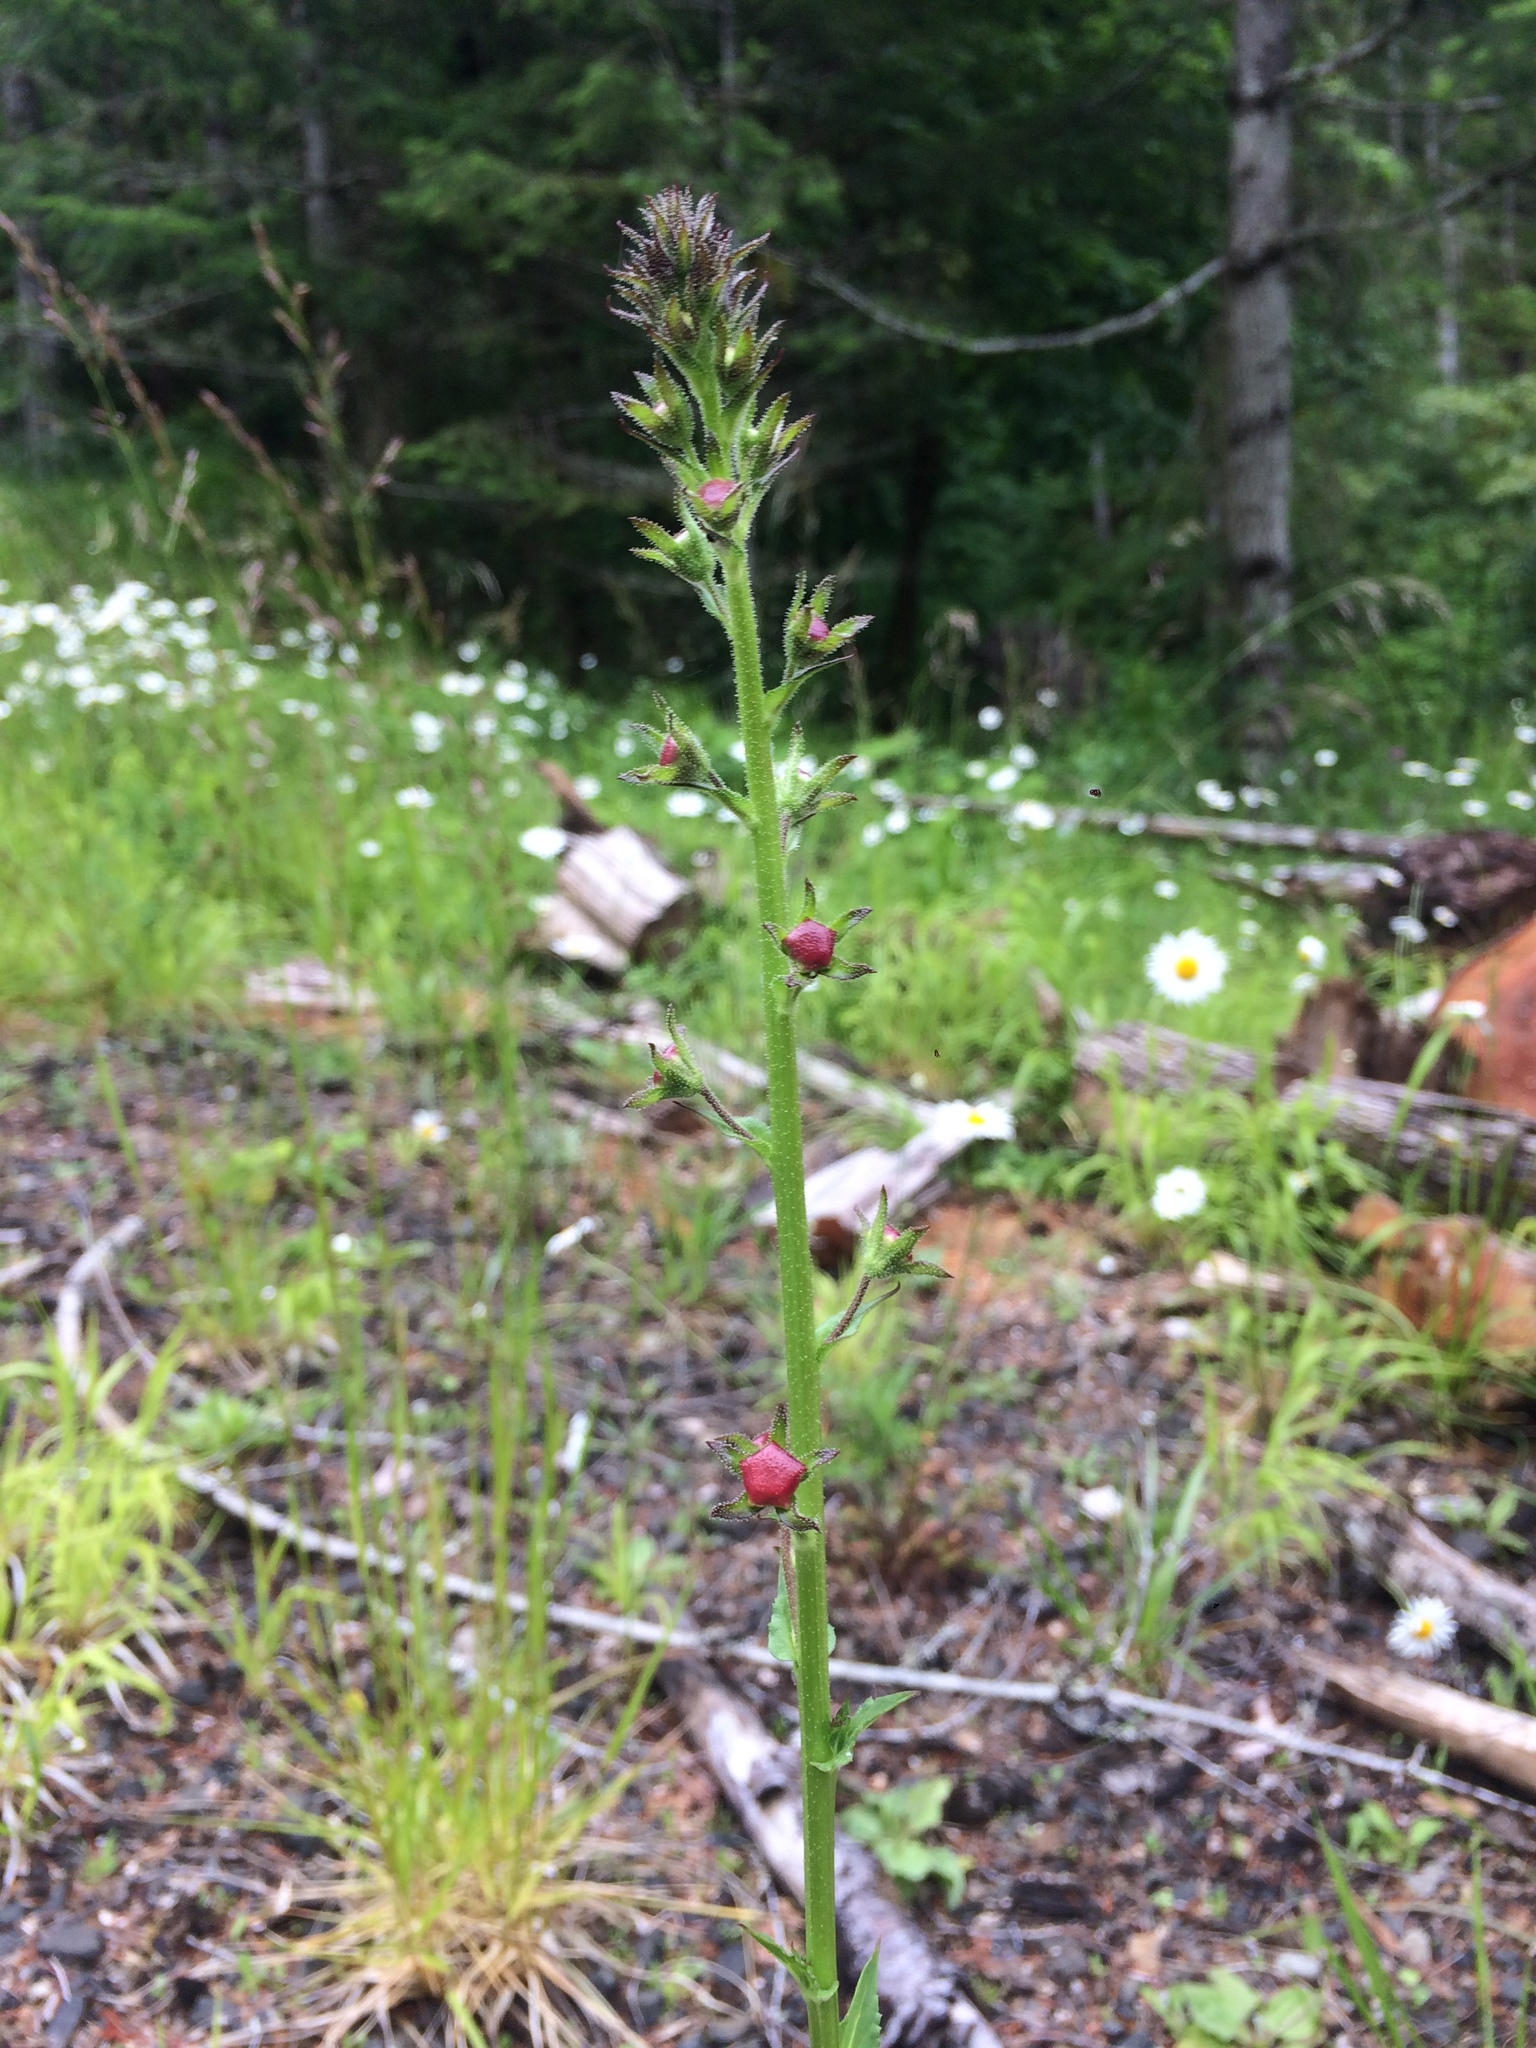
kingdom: Plantae
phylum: Tracheophyta
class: Magnoliopsida
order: Lamiales
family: Scrophulariaceae
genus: Verbascum
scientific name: Verbascum blattaria
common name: Moth mullein
